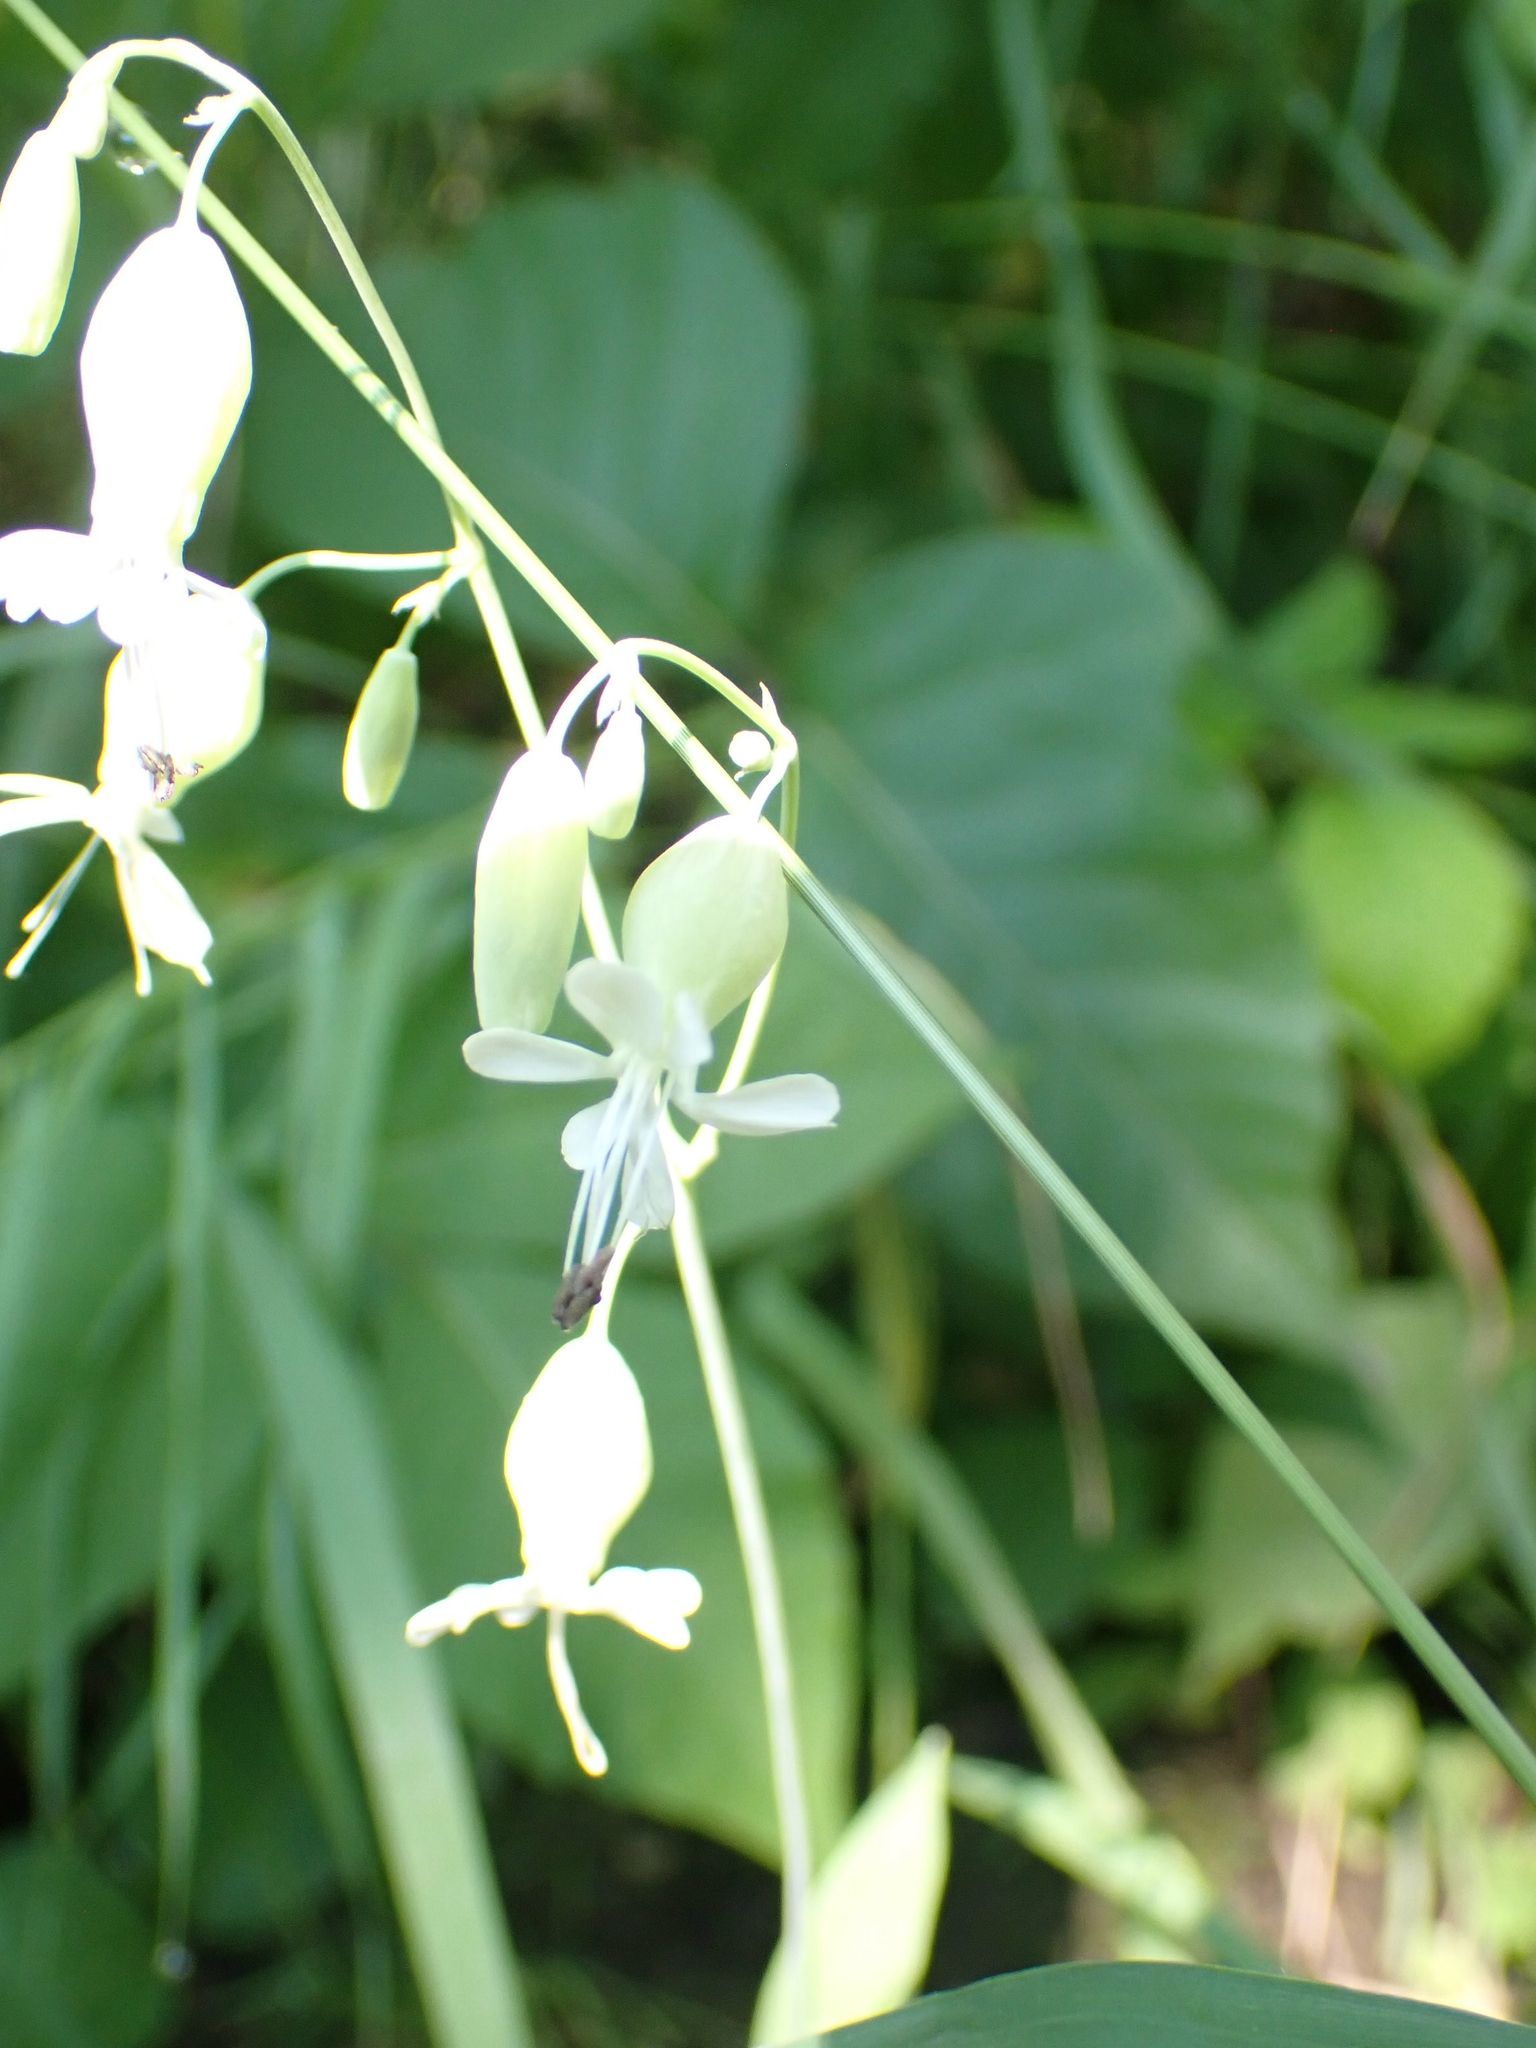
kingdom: Plantae
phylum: Tracheophyta
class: Magnoliopsida
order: Caryophyllales
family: Caryophyllaceae
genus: Silene
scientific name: Silene vulgaris
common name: Bladder campion
